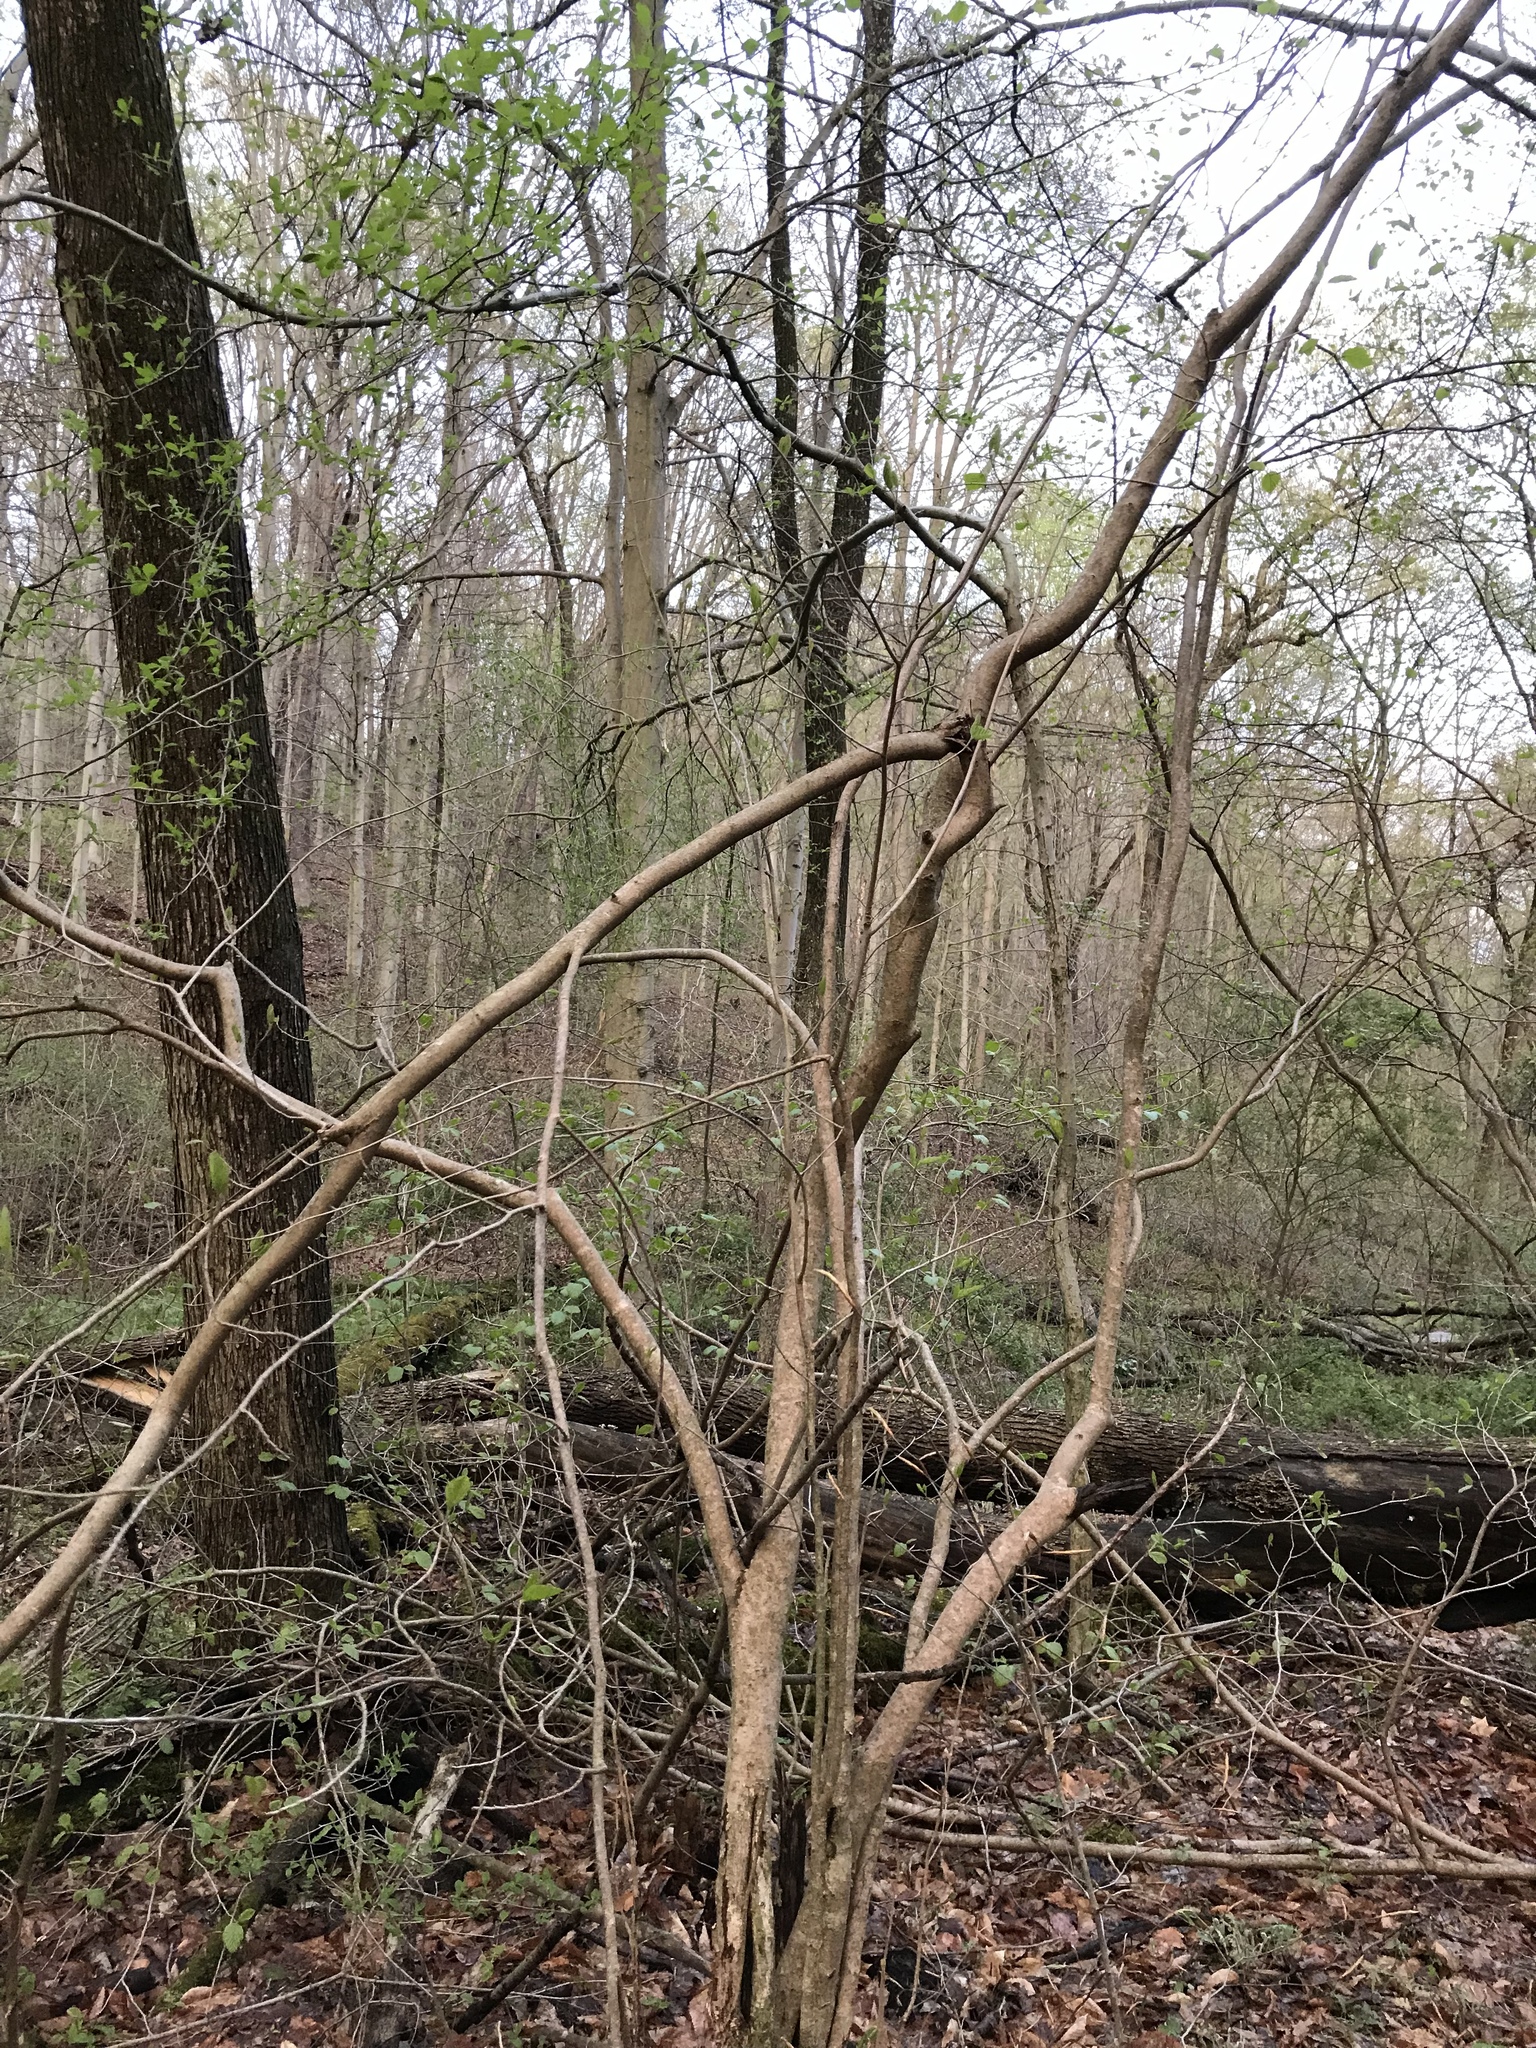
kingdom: Plantae
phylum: Tracheophyta
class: Magnoliopsida
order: Saxifragales
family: Hamamelidaceae
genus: Hamamelis
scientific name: Hamamelis virginiana
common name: Witch-hazel
